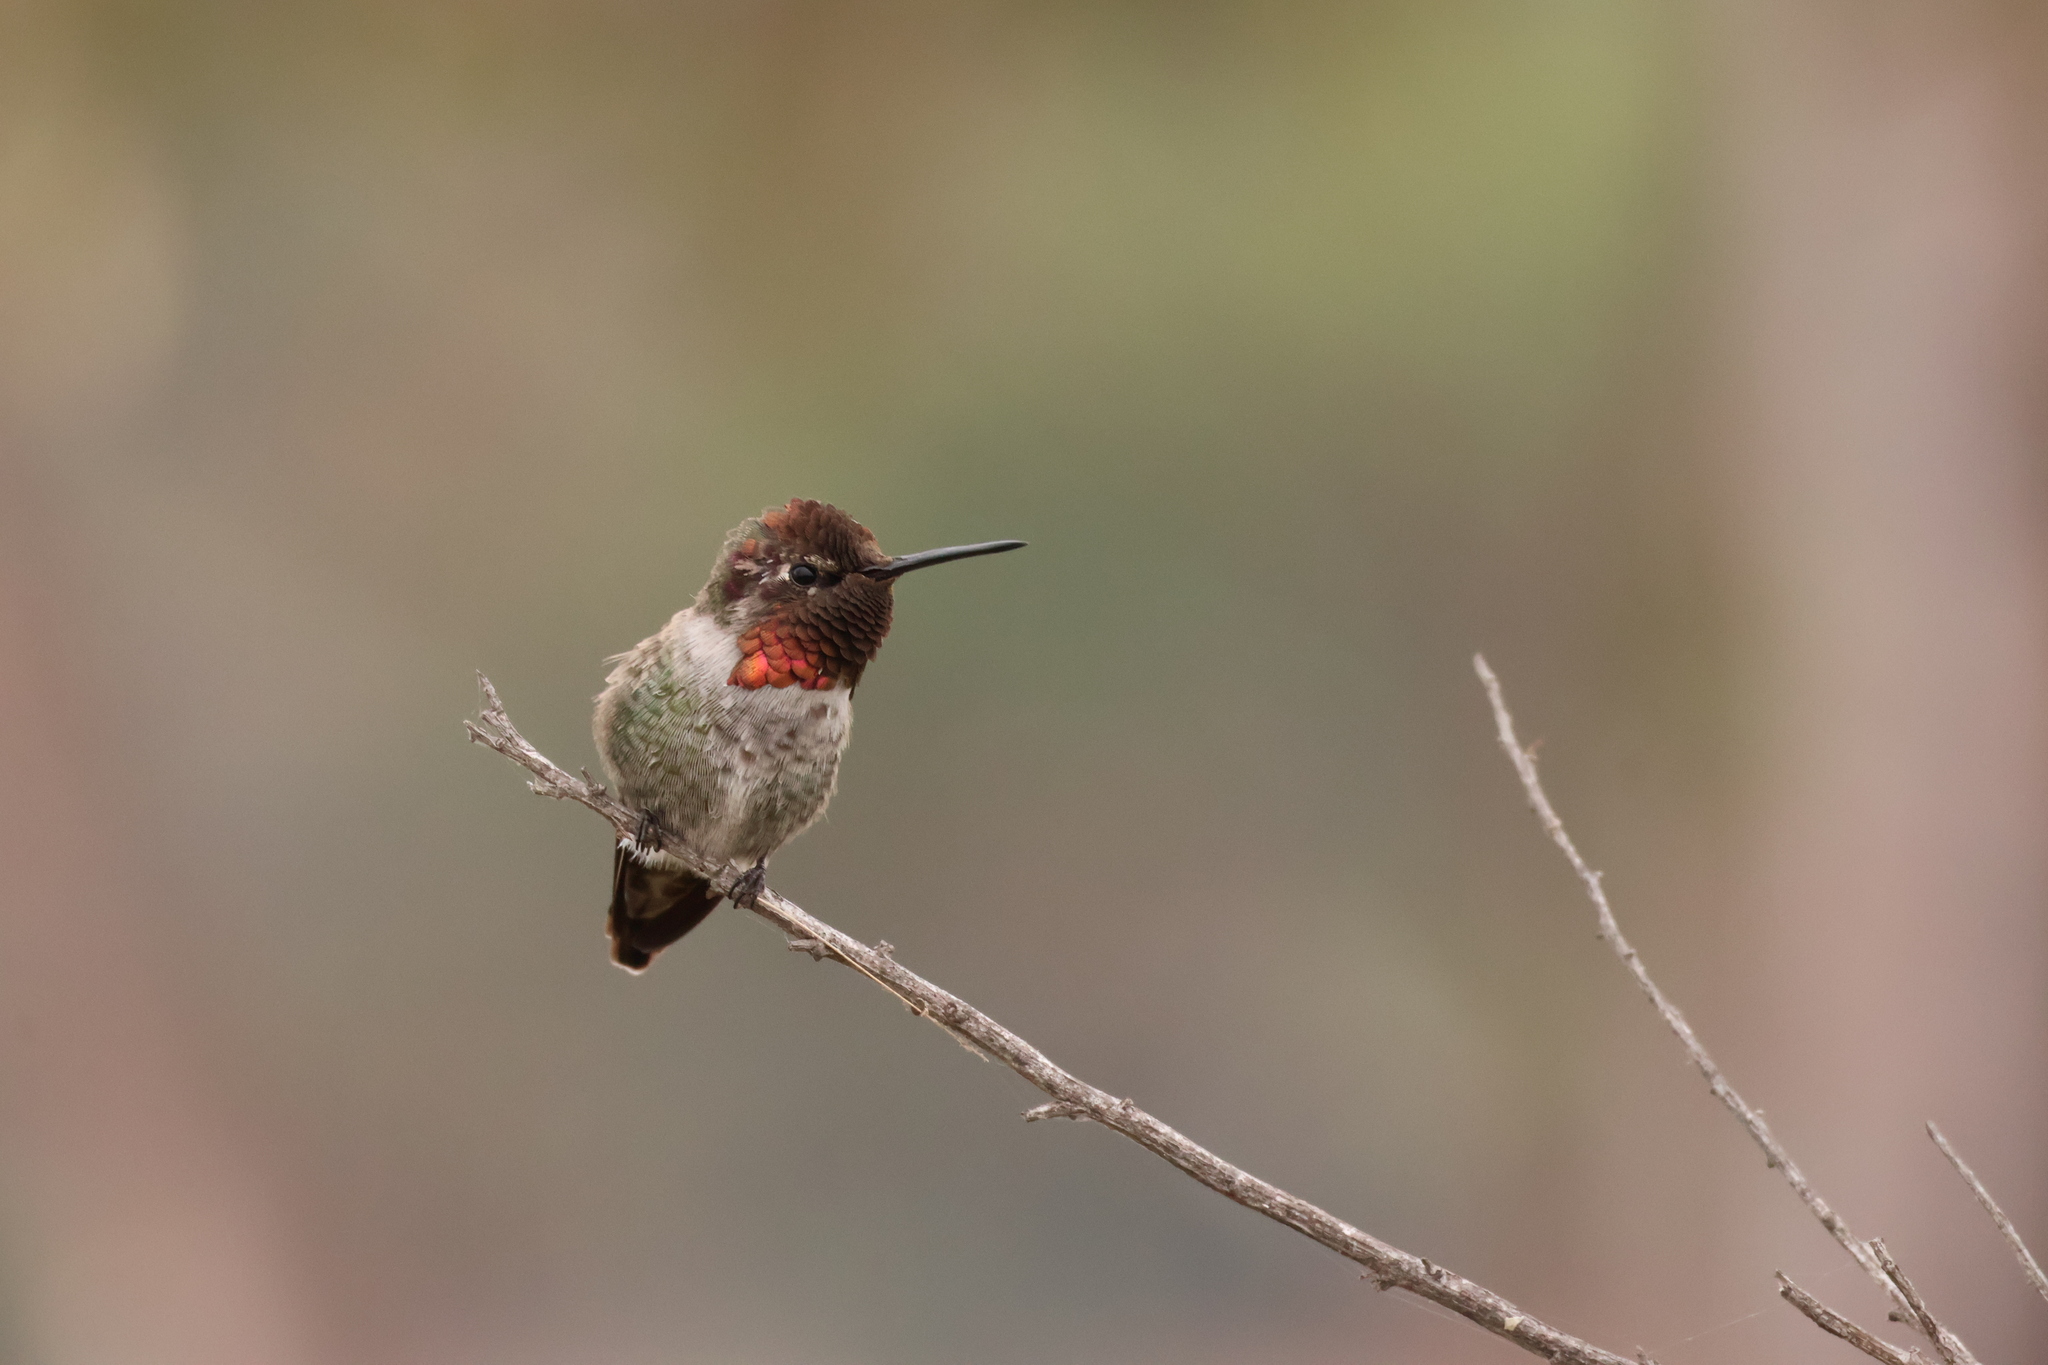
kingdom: Animalia
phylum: Chordata
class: Aves
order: Apodiformes
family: Trochilidae
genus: Calypte
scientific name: Calypte anna
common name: Anna's hummingbird
